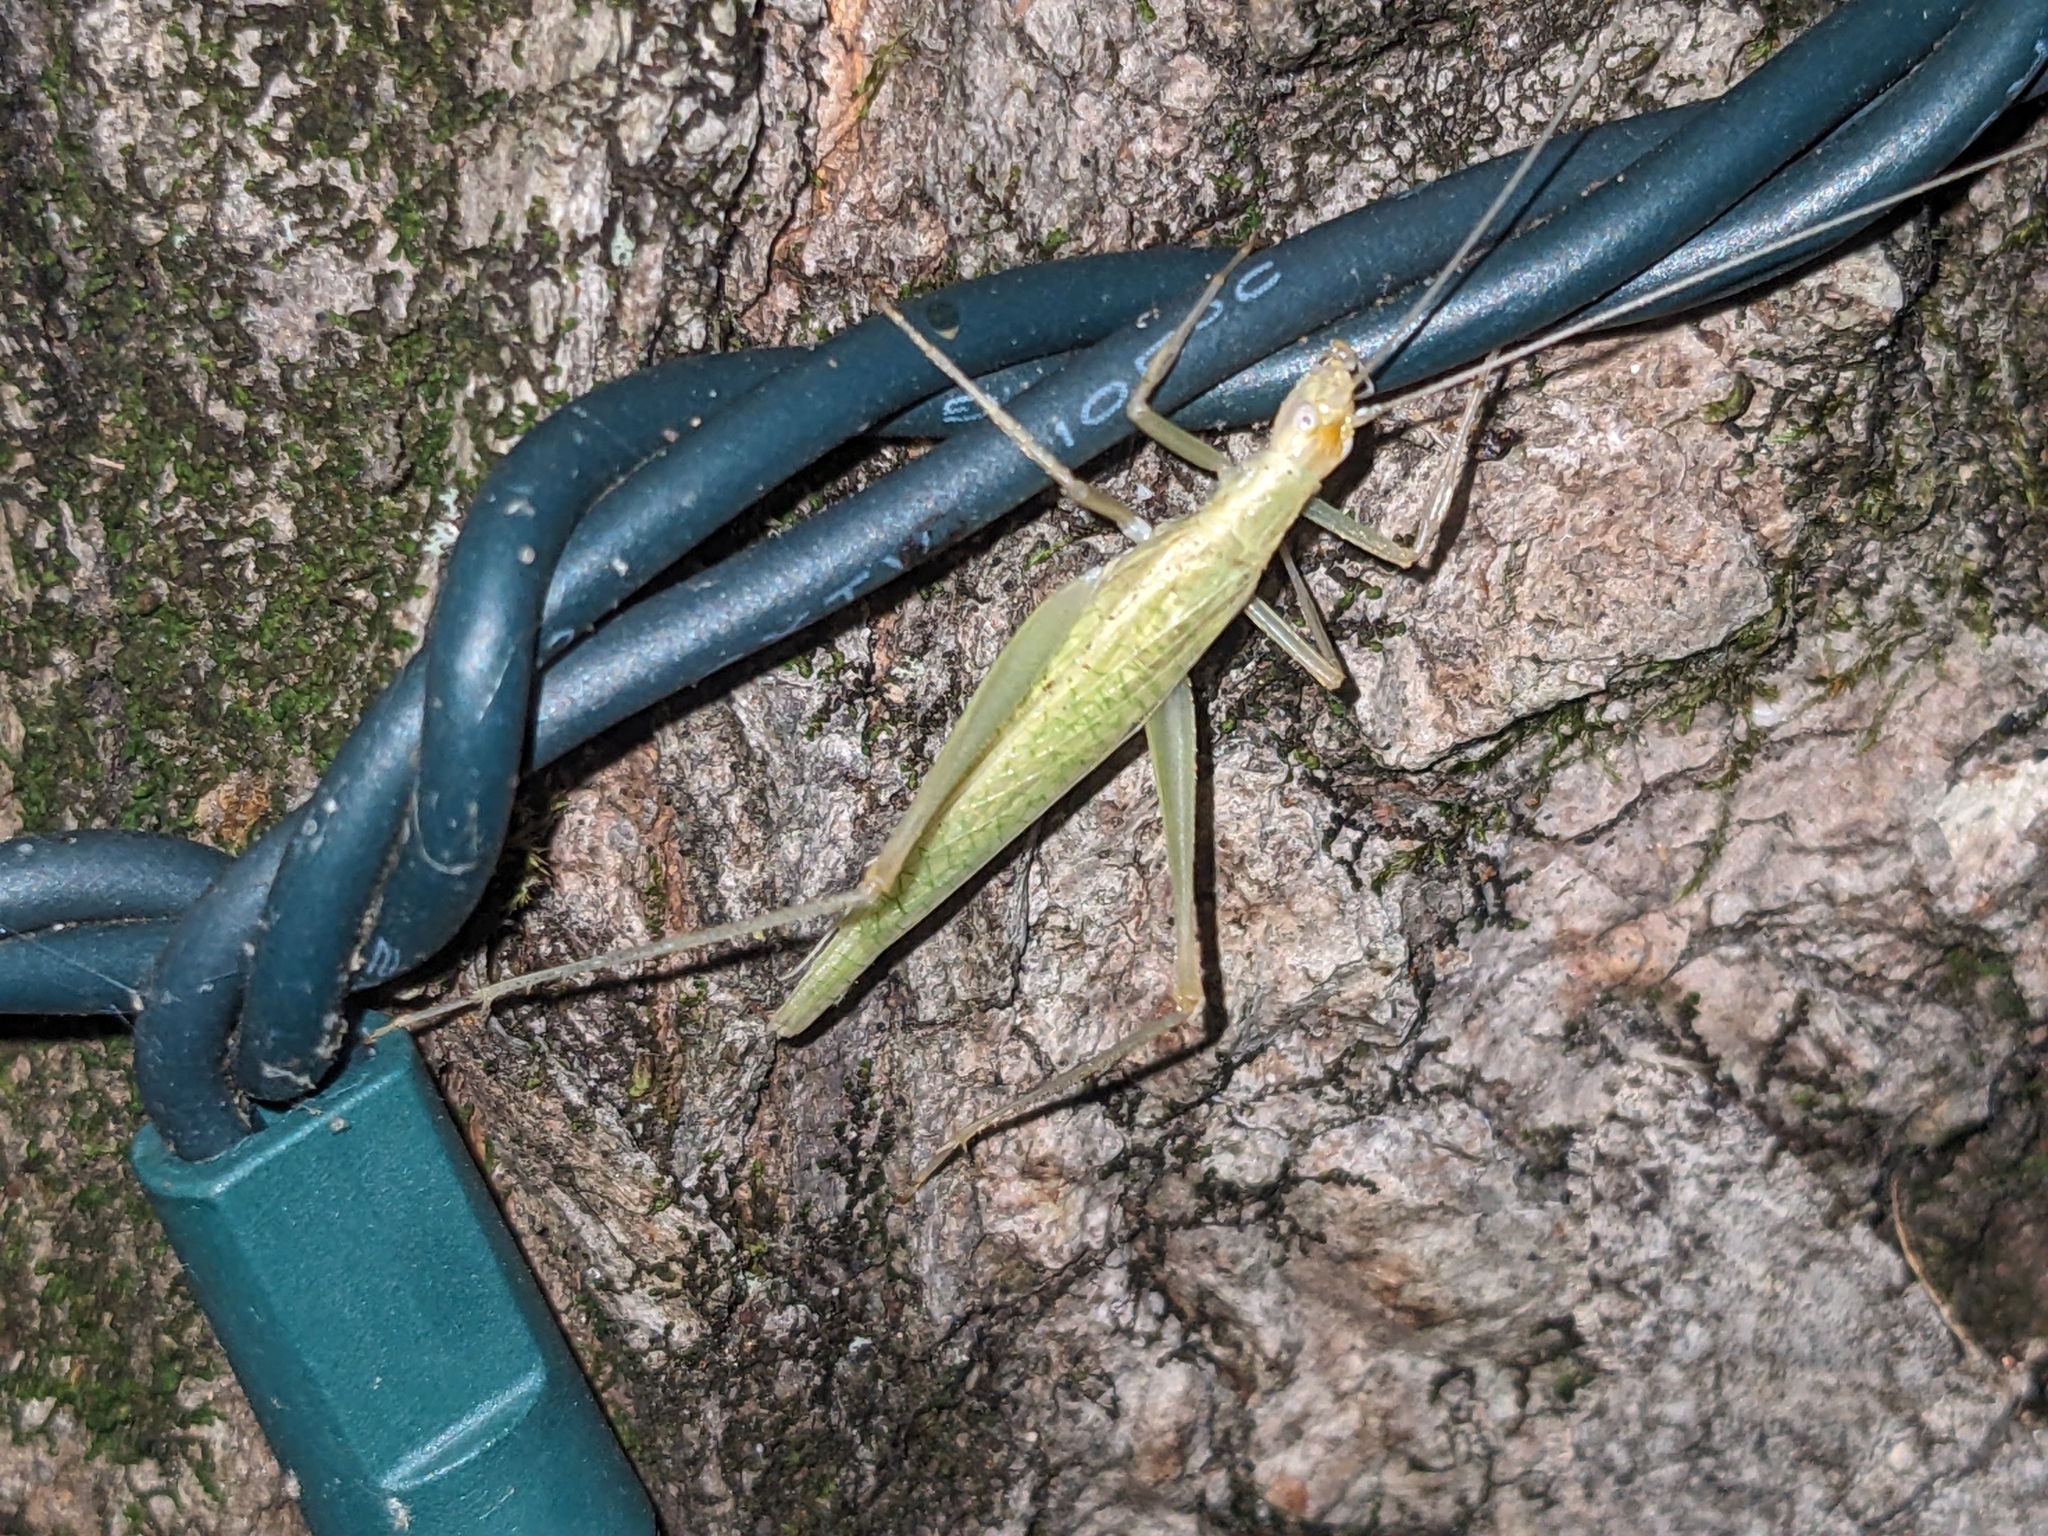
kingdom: Animalia
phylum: Arthropoda
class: Insecta
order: Orthoptera
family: Gryllidae
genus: Oecanthus
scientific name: Oecanthus niveus
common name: Narrow-winged tree cricket
